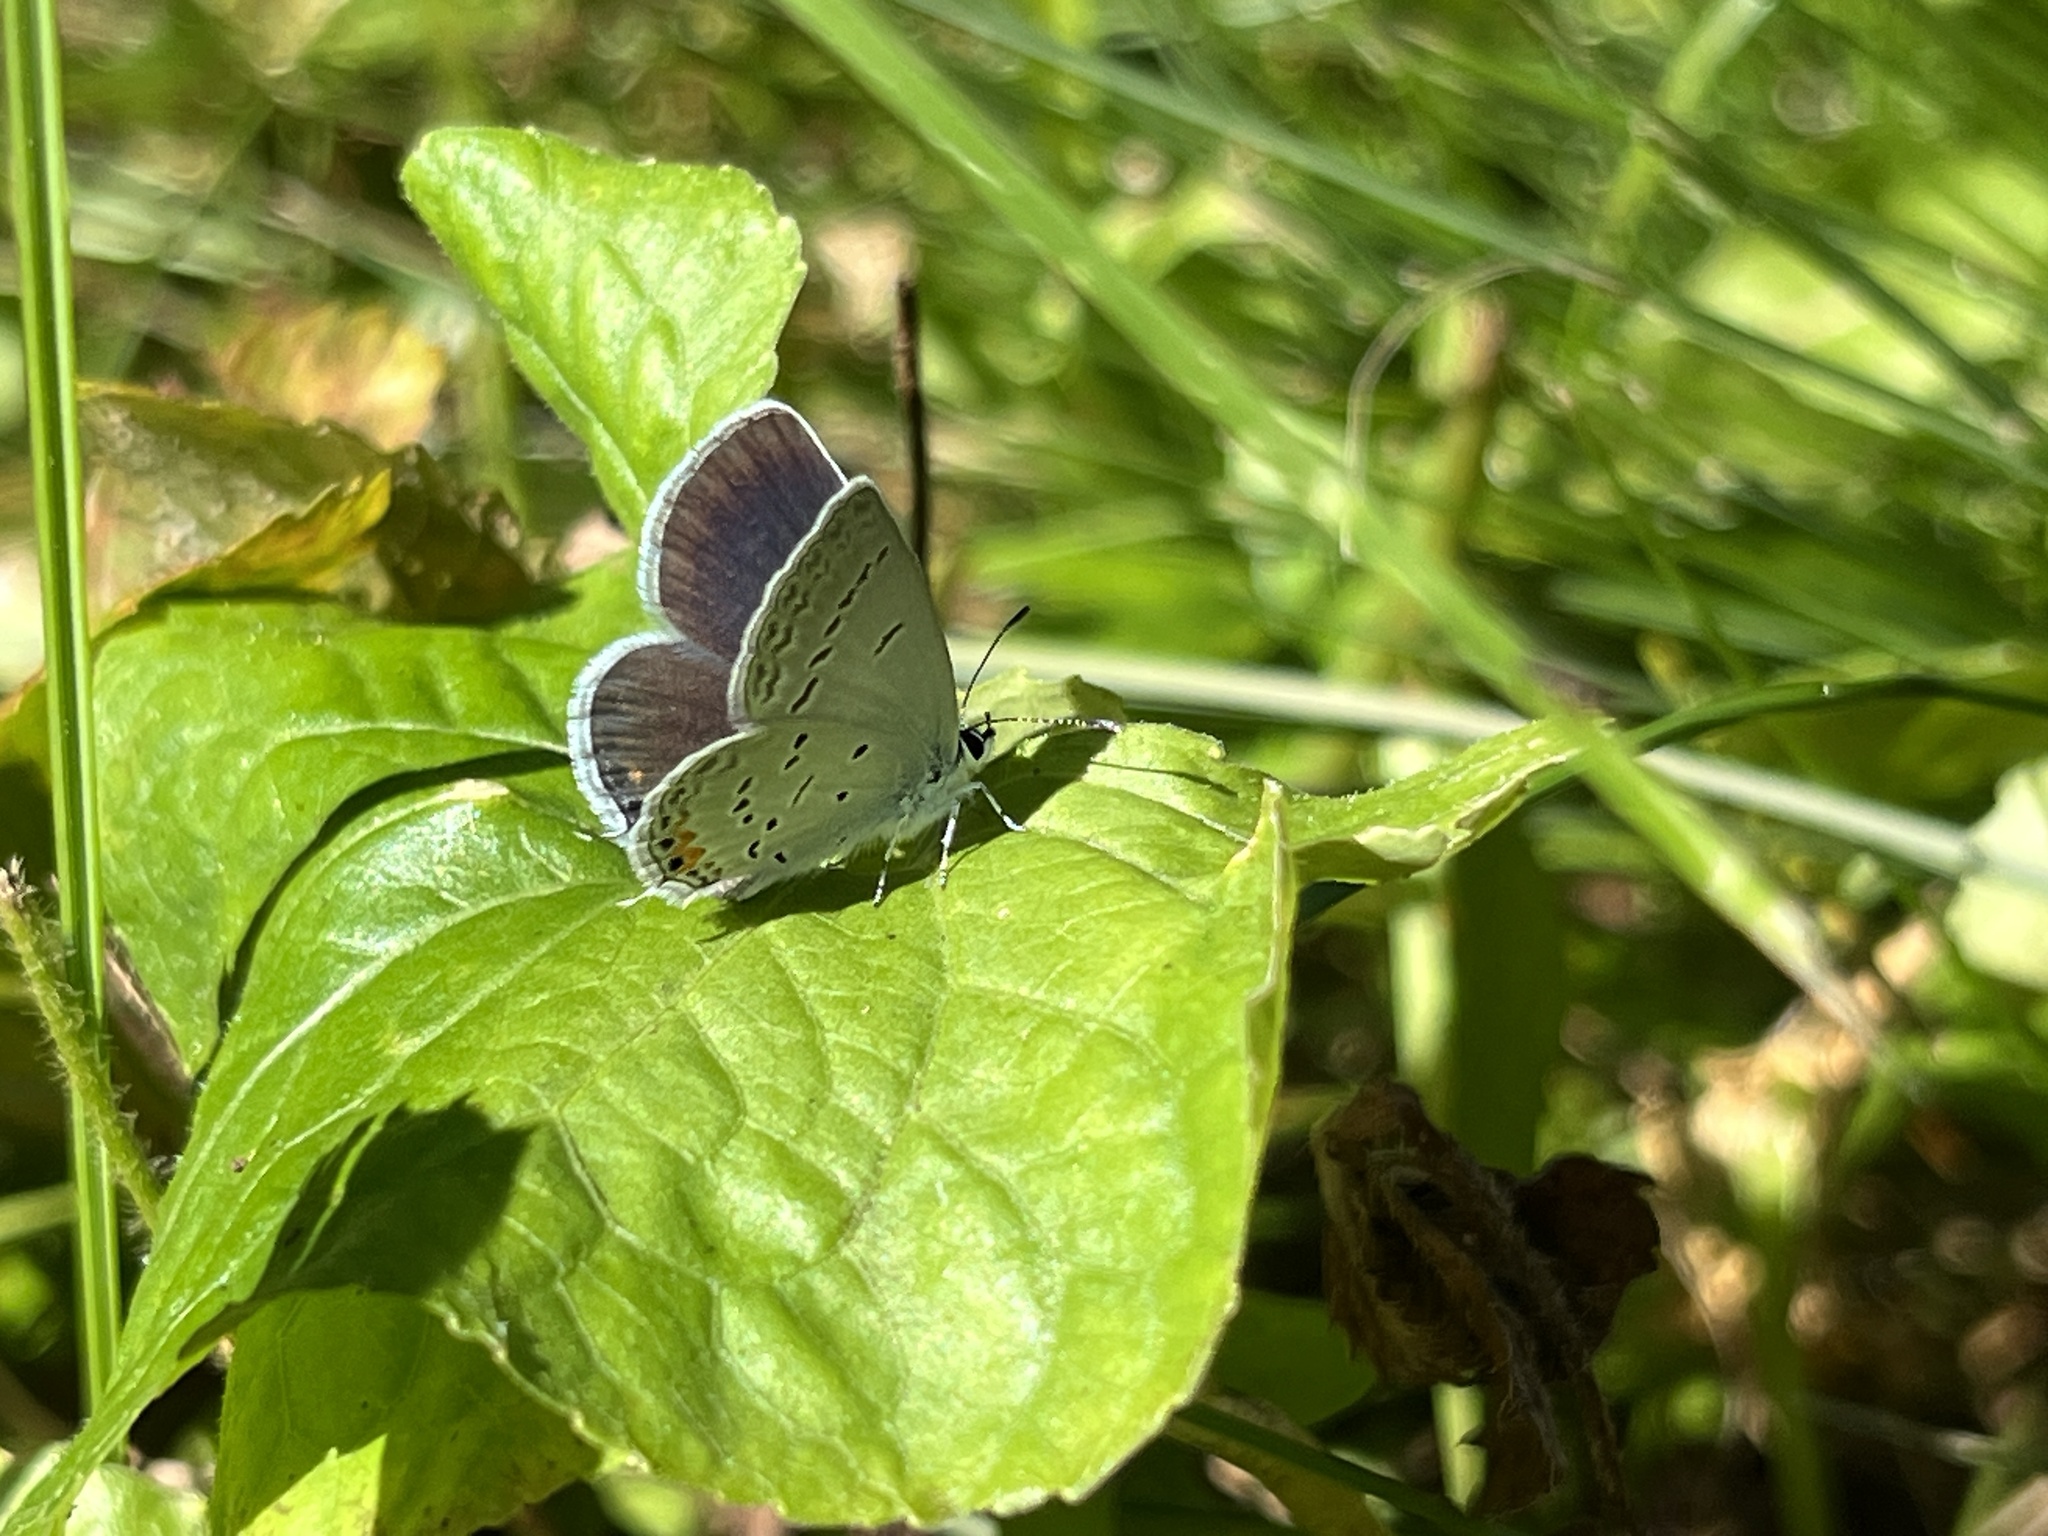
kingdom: Animalia
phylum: Arthropoda
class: Insecta
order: Lepidoptera
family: Lycaenidae
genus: Elkalyce
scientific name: Elkalyce comyntas
